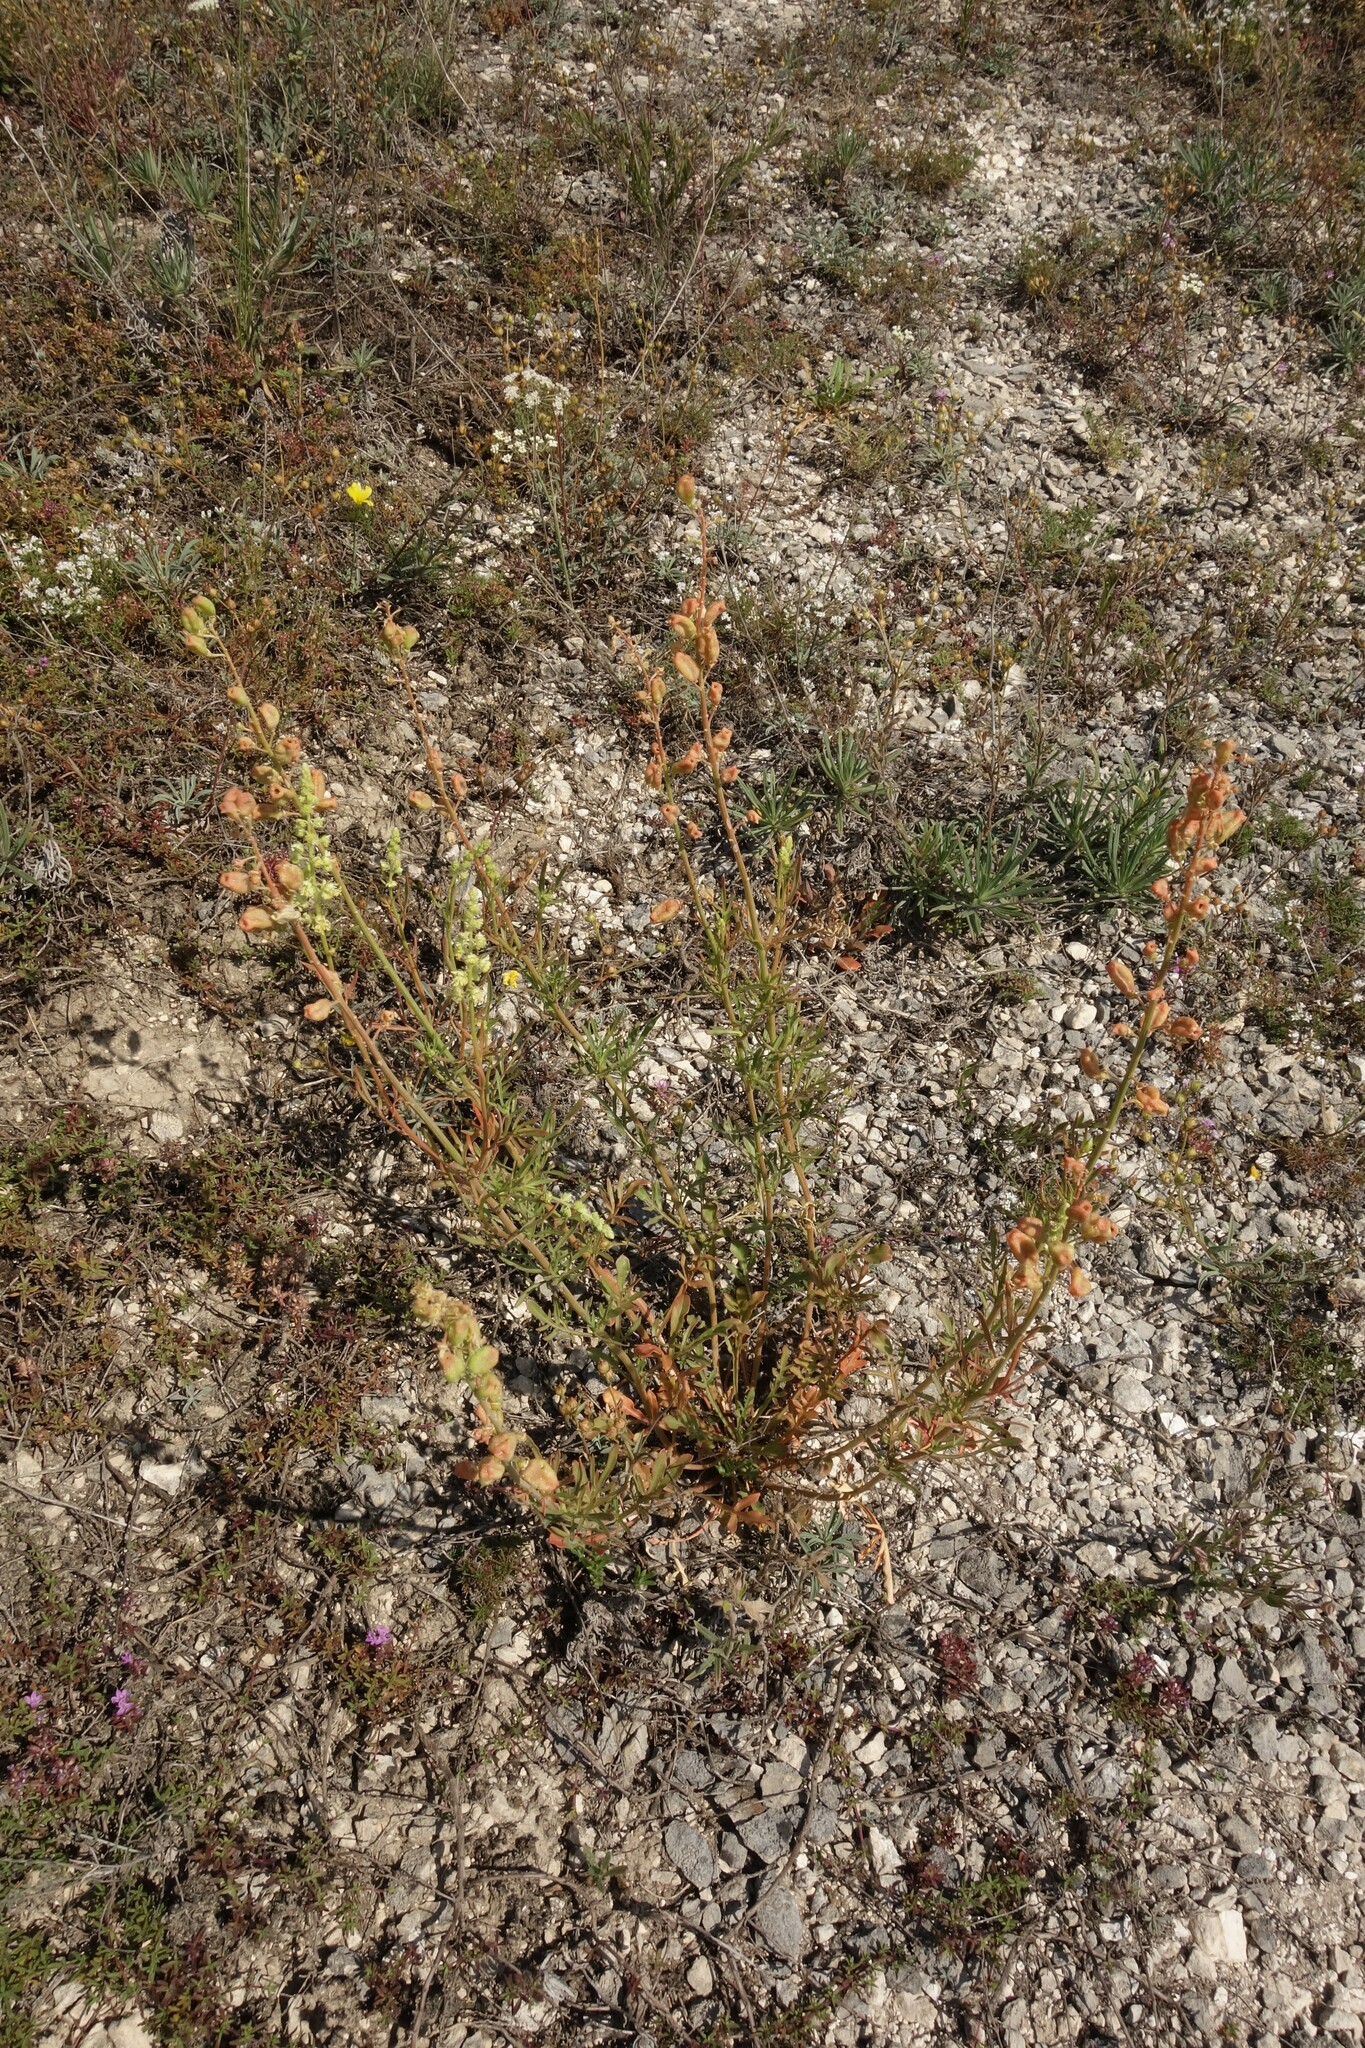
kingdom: Plantae
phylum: Tracheophyta
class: Magnoliopsida
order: Brassicales
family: Resedaceae
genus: Reseda
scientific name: Reseda lutea
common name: Wild mignonette
